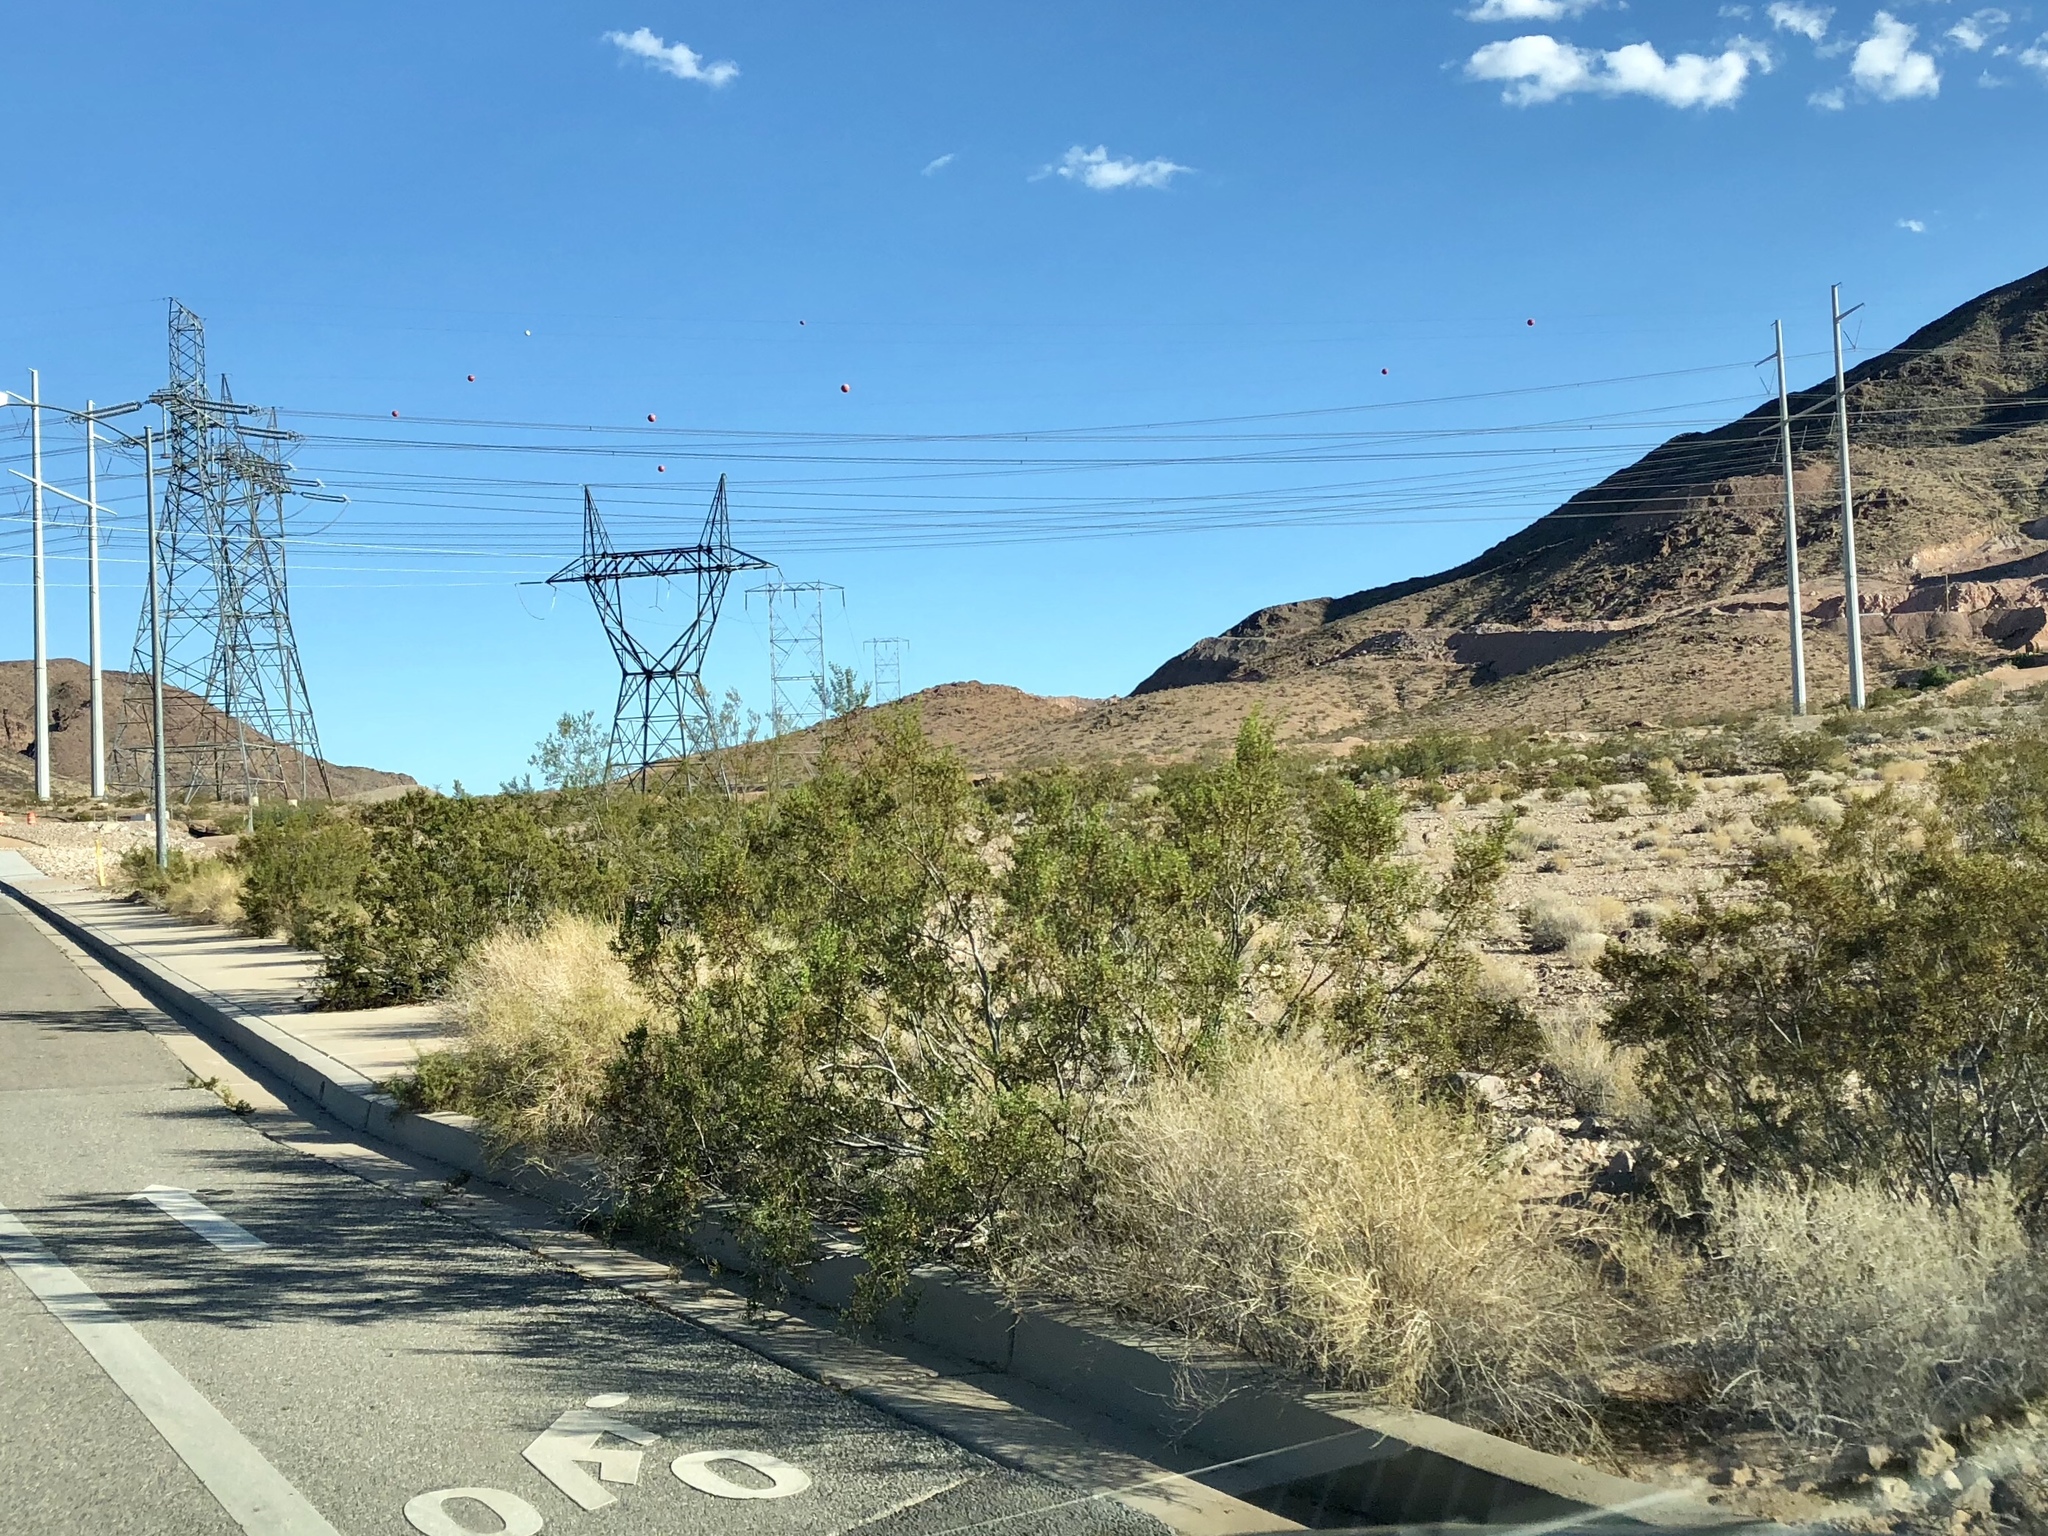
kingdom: Plantae
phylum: Tracheophyta
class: Magnoliopsida
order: Zygophyllales
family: Zygophyllaceae
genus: Larrea
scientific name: Larrea tridentata
